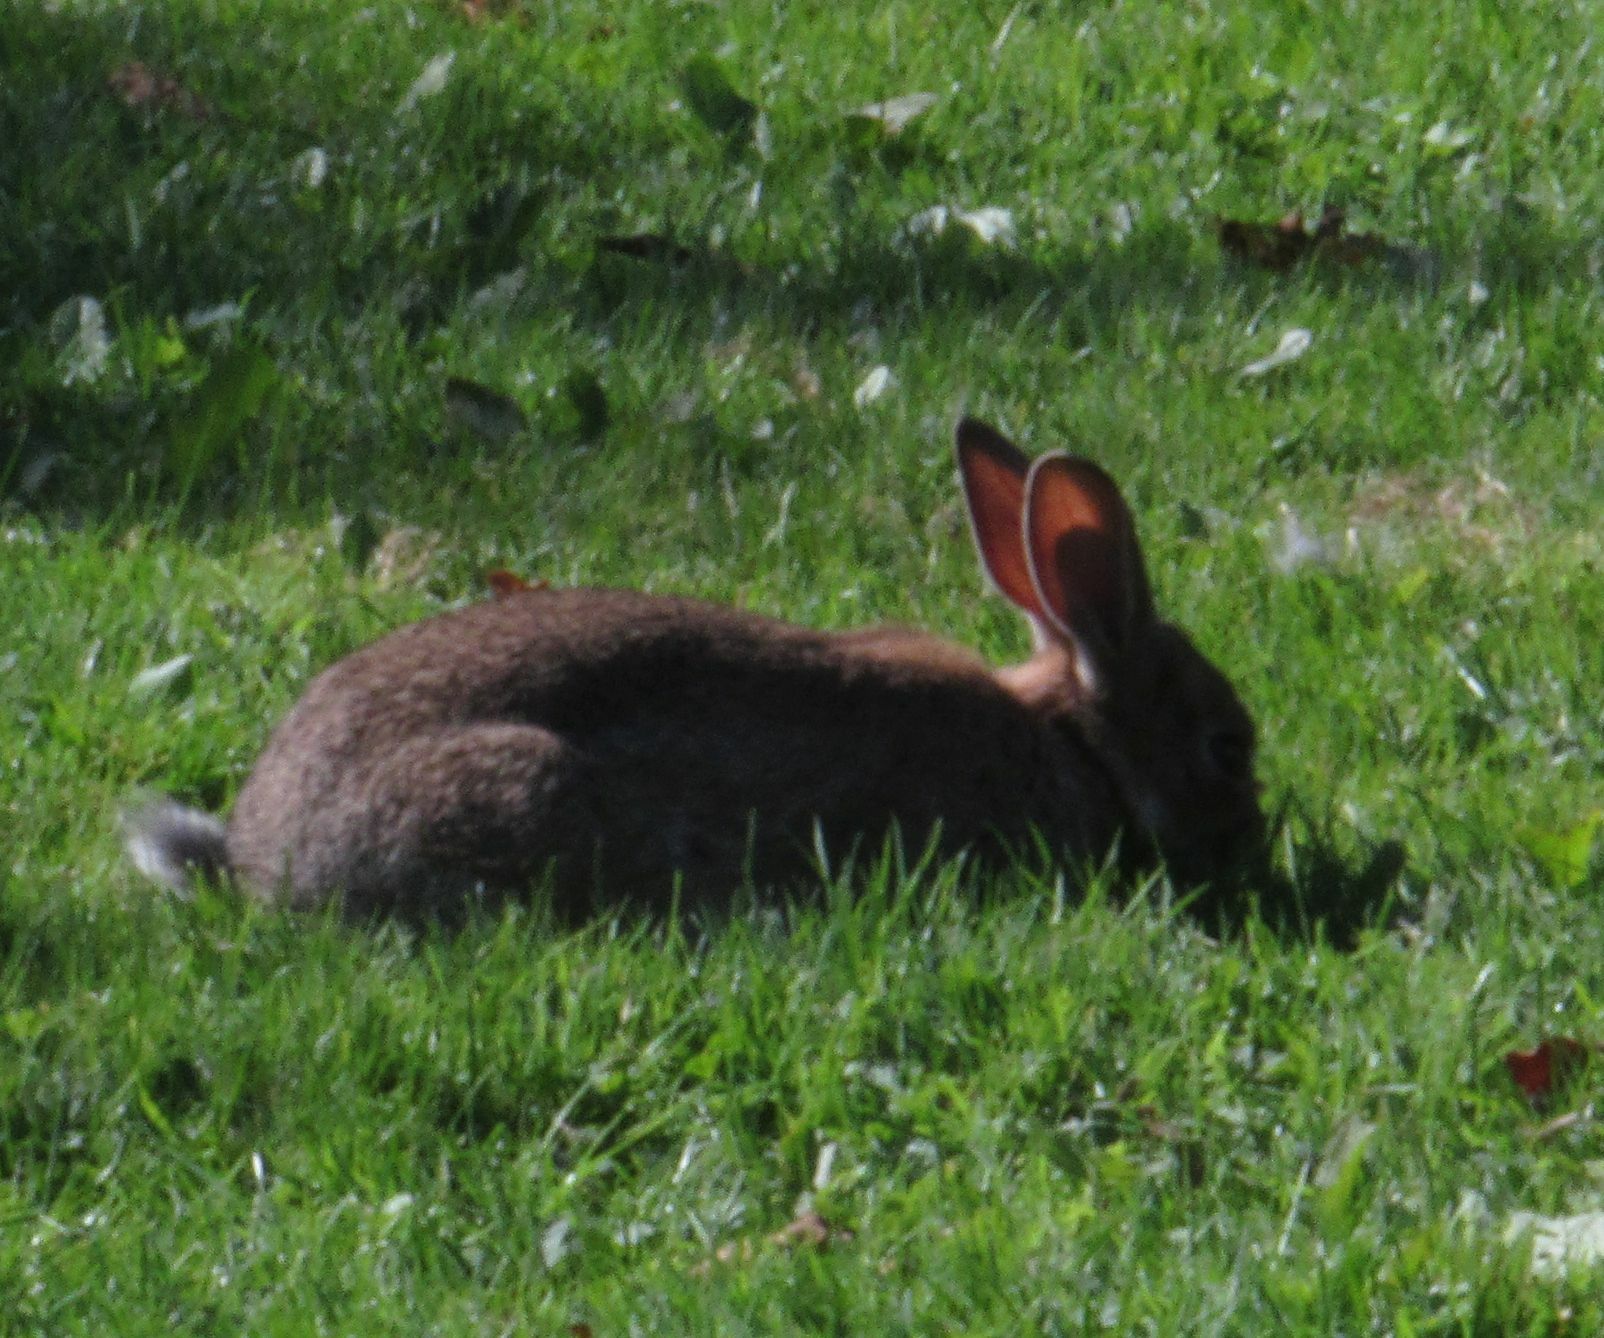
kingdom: Animalia
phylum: Chordata
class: Mammalia
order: Lagomorpha
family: Leporidae
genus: Oryctolagus
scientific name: Oryctolagus cuniculus
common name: European rabbit
